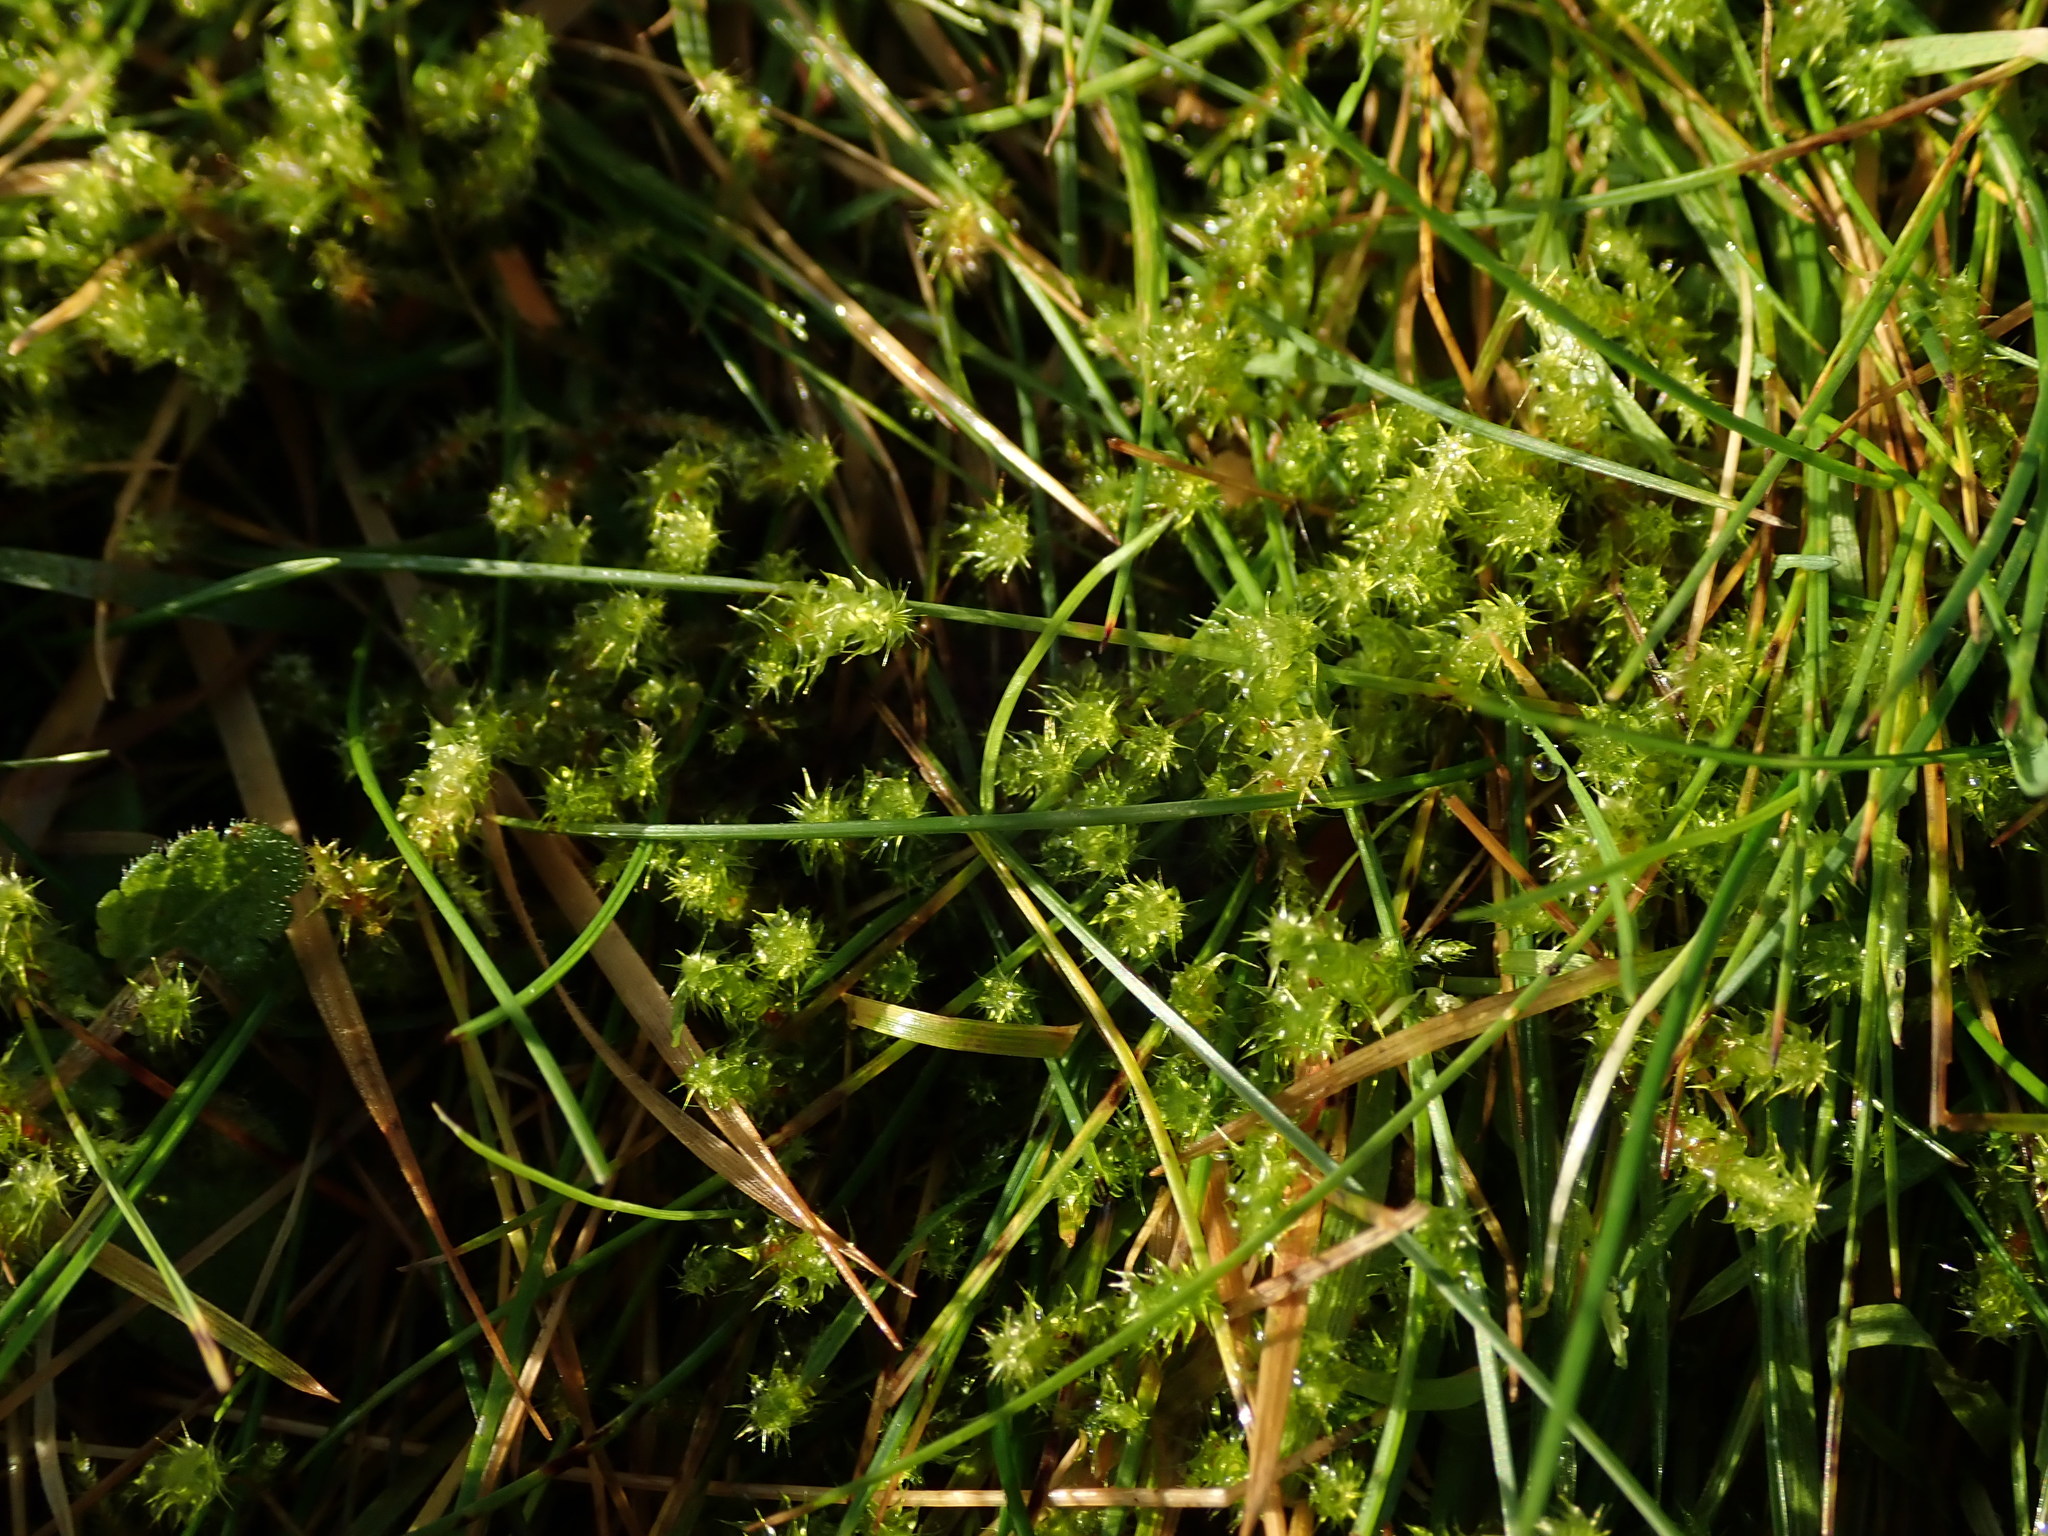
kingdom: Plantae
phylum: Bryophyta
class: Bryopsida
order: Hypnales
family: Hylocomiaceae
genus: Rhytidiadelphus
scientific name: Rhytidiadelphus squarrosus
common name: Springy turf-moss
